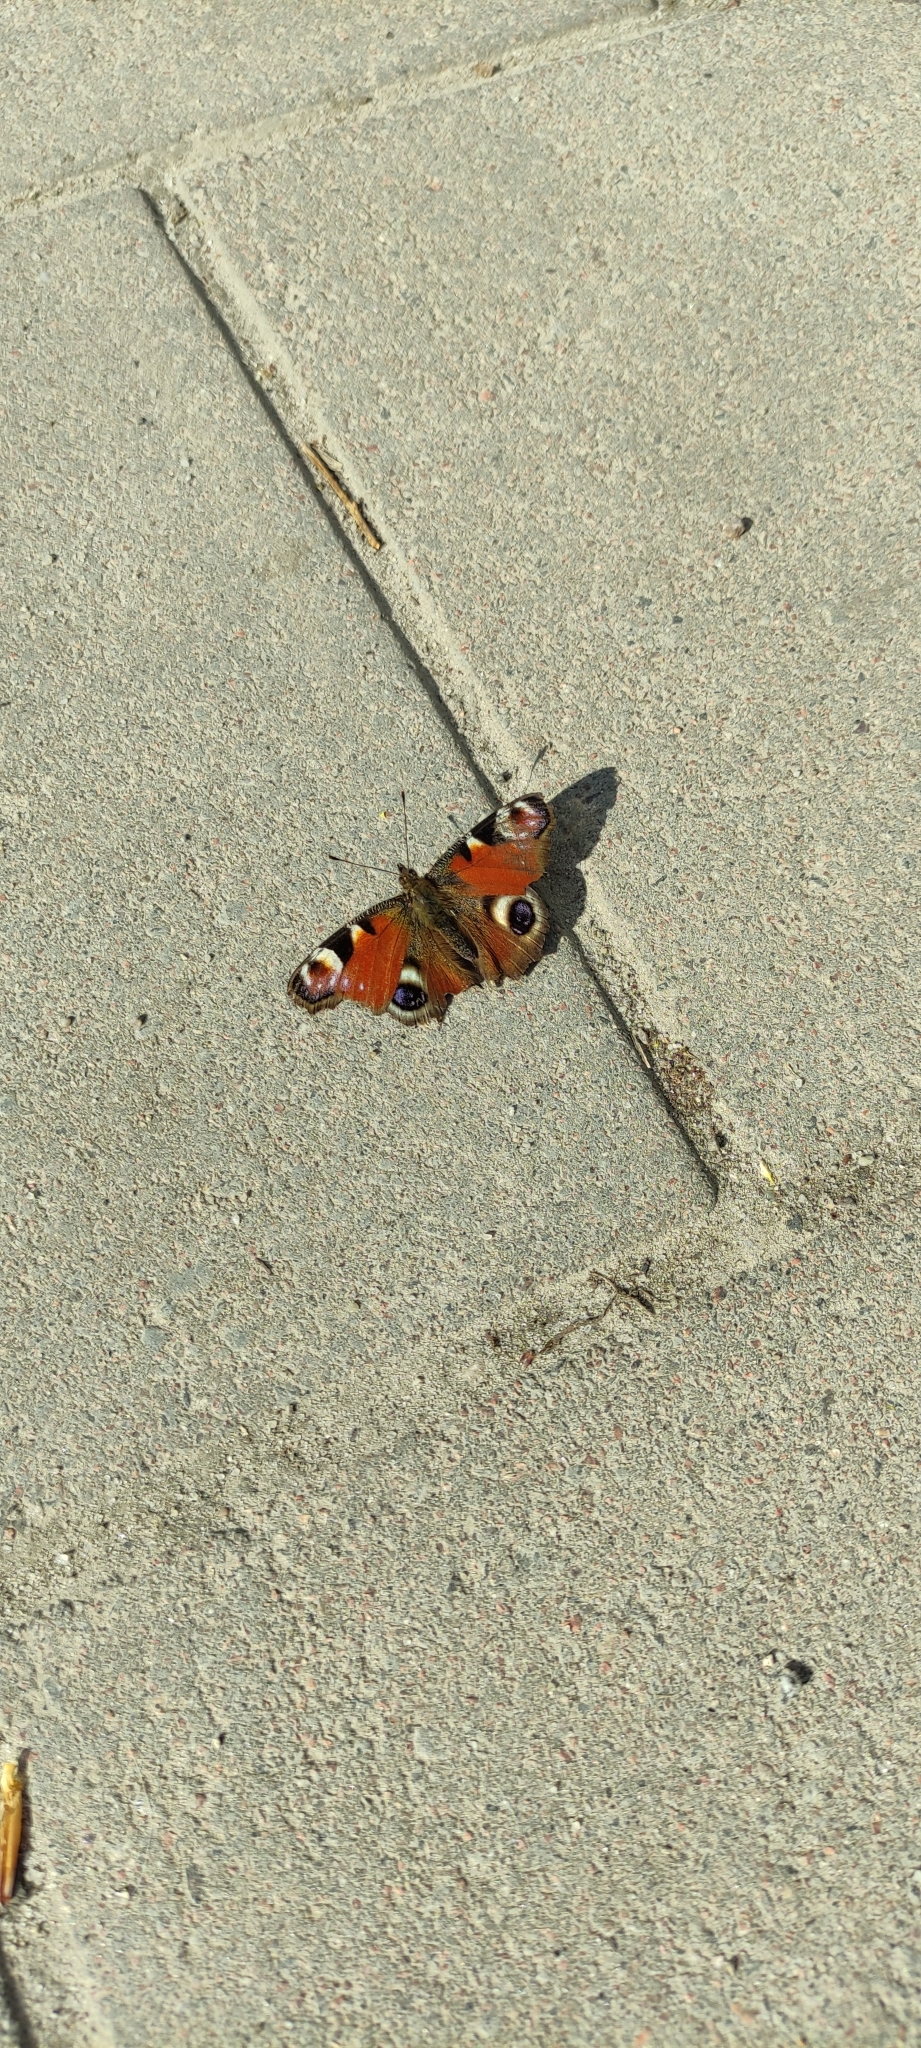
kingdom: Animalia
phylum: Arthropoda
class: Insecta
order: Lepidoptera
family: Nymphalidae
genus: Aglais
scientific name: Aglais io
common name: Peacock
